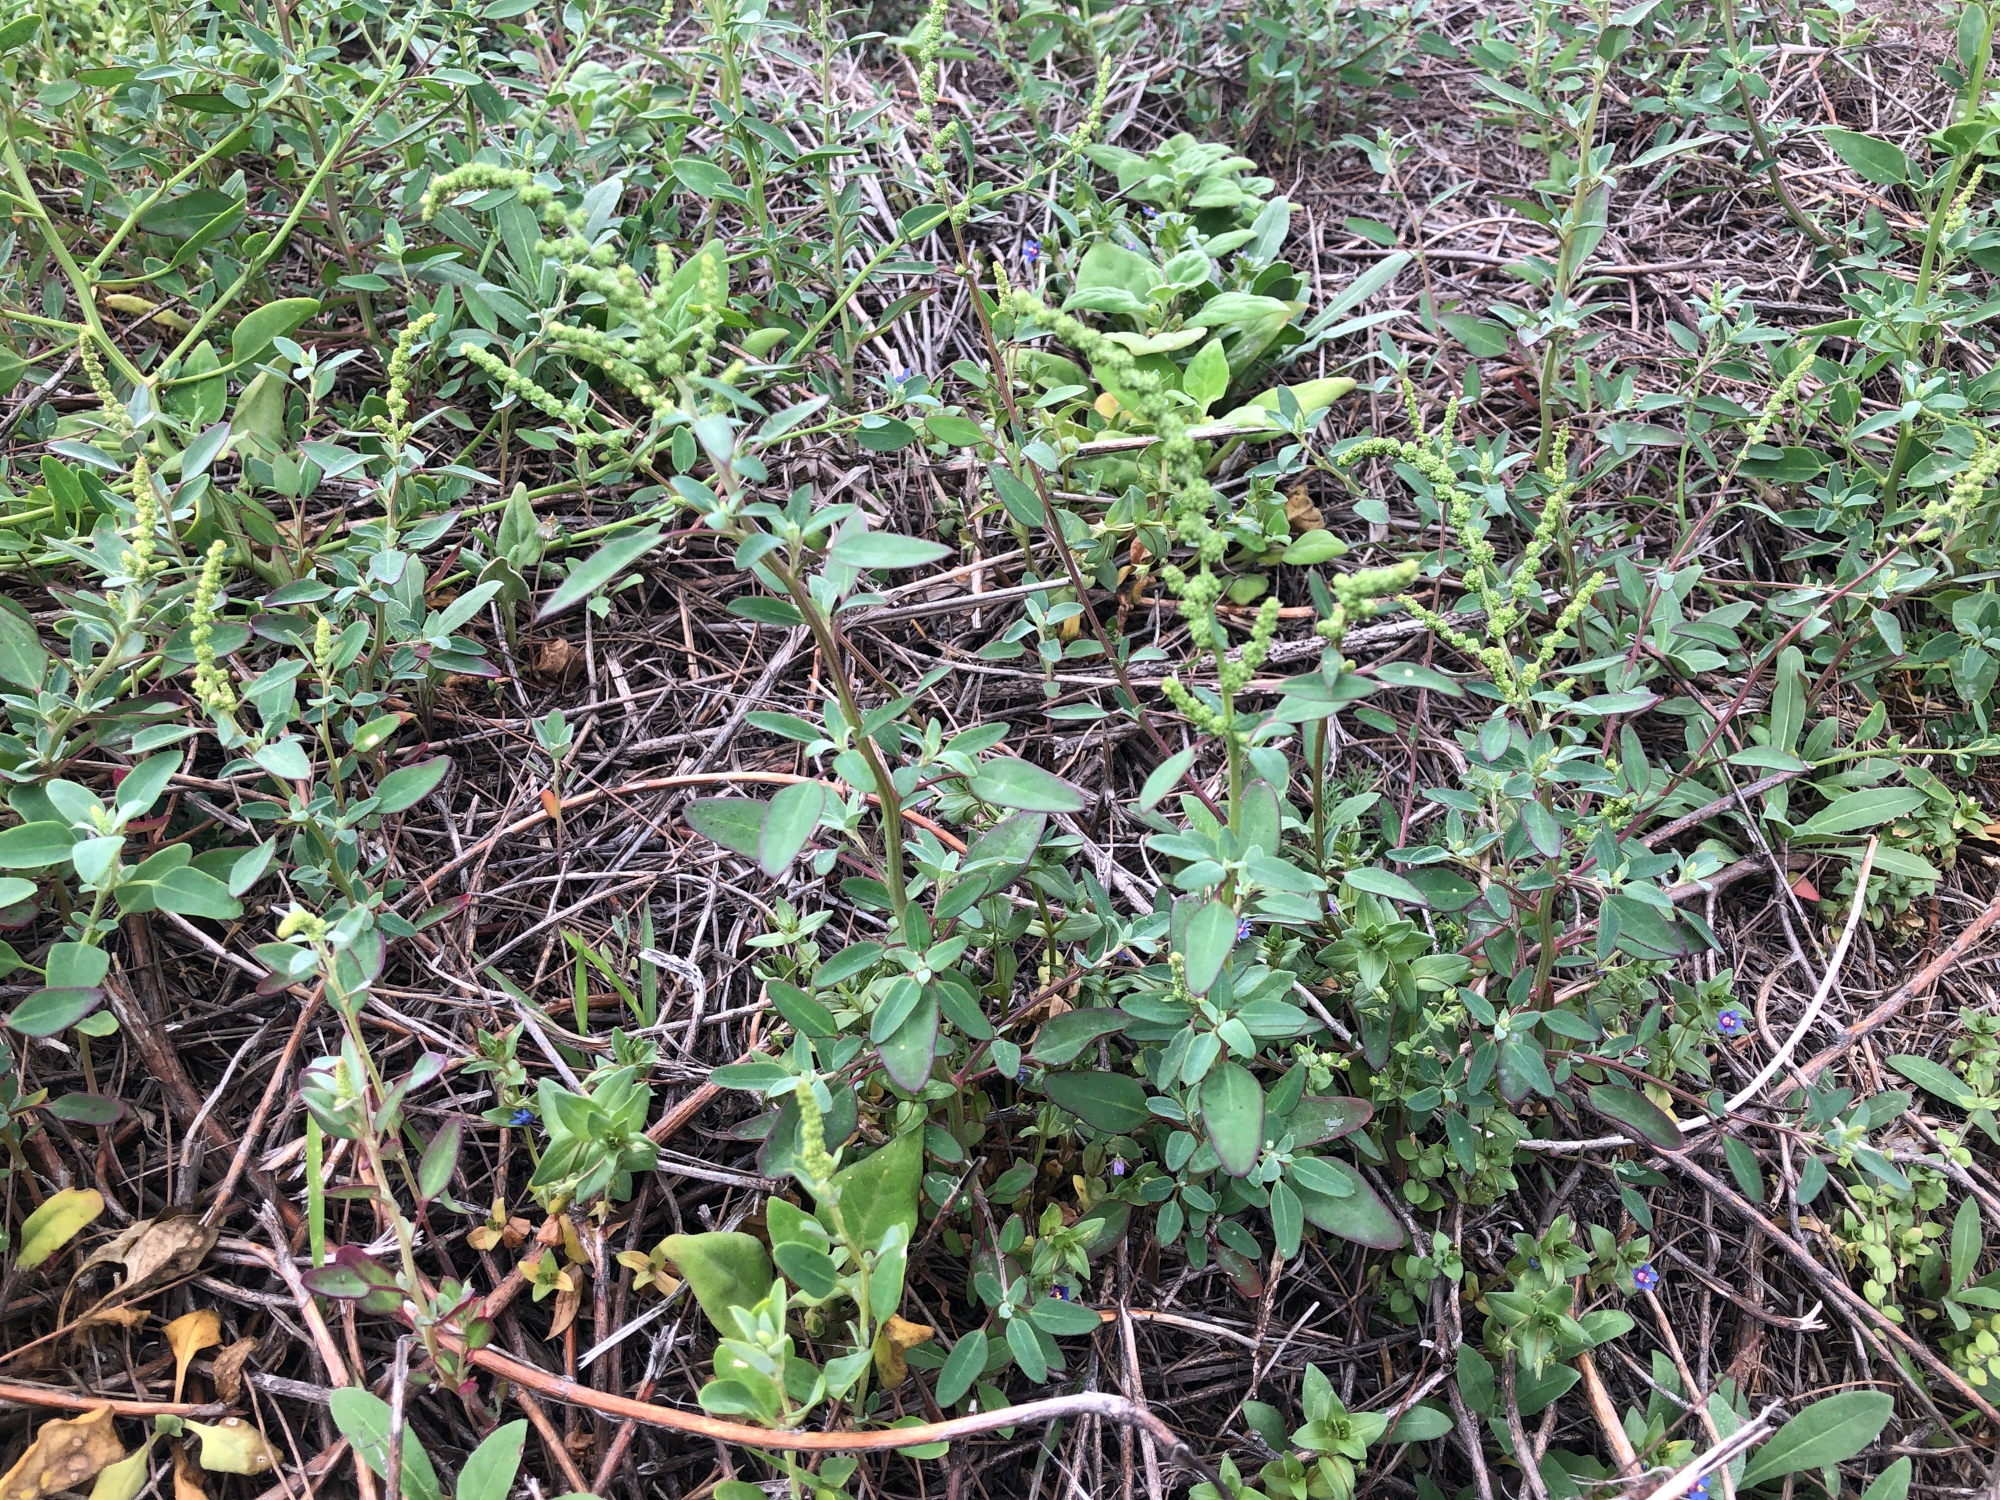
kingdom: Plantae
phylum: Tracheophyta
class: Magnoliopsida
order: Caryophyllales
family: Amaranthaceae
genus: Chenopodium
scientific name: Chenopodium acuminatum
